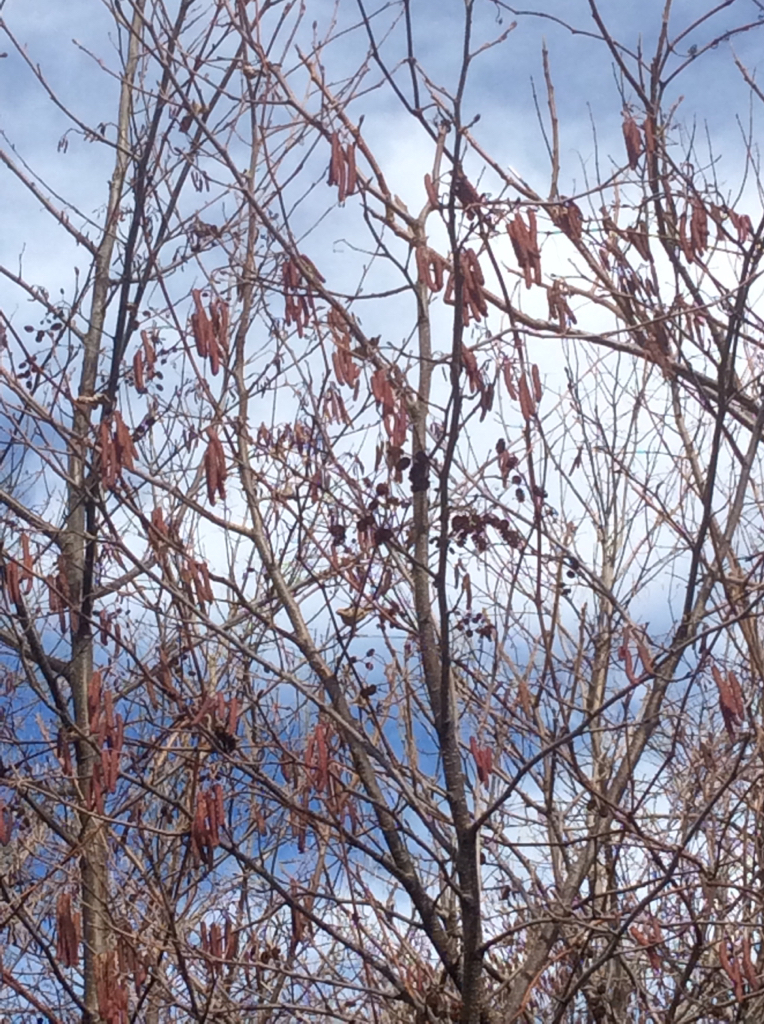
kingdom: Plantae
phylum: Tracheophyta
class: Magnoliopsida
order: Fagales
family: Betulaceae
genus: Alnus
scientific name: Alnus glutinosa
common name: Black alder
